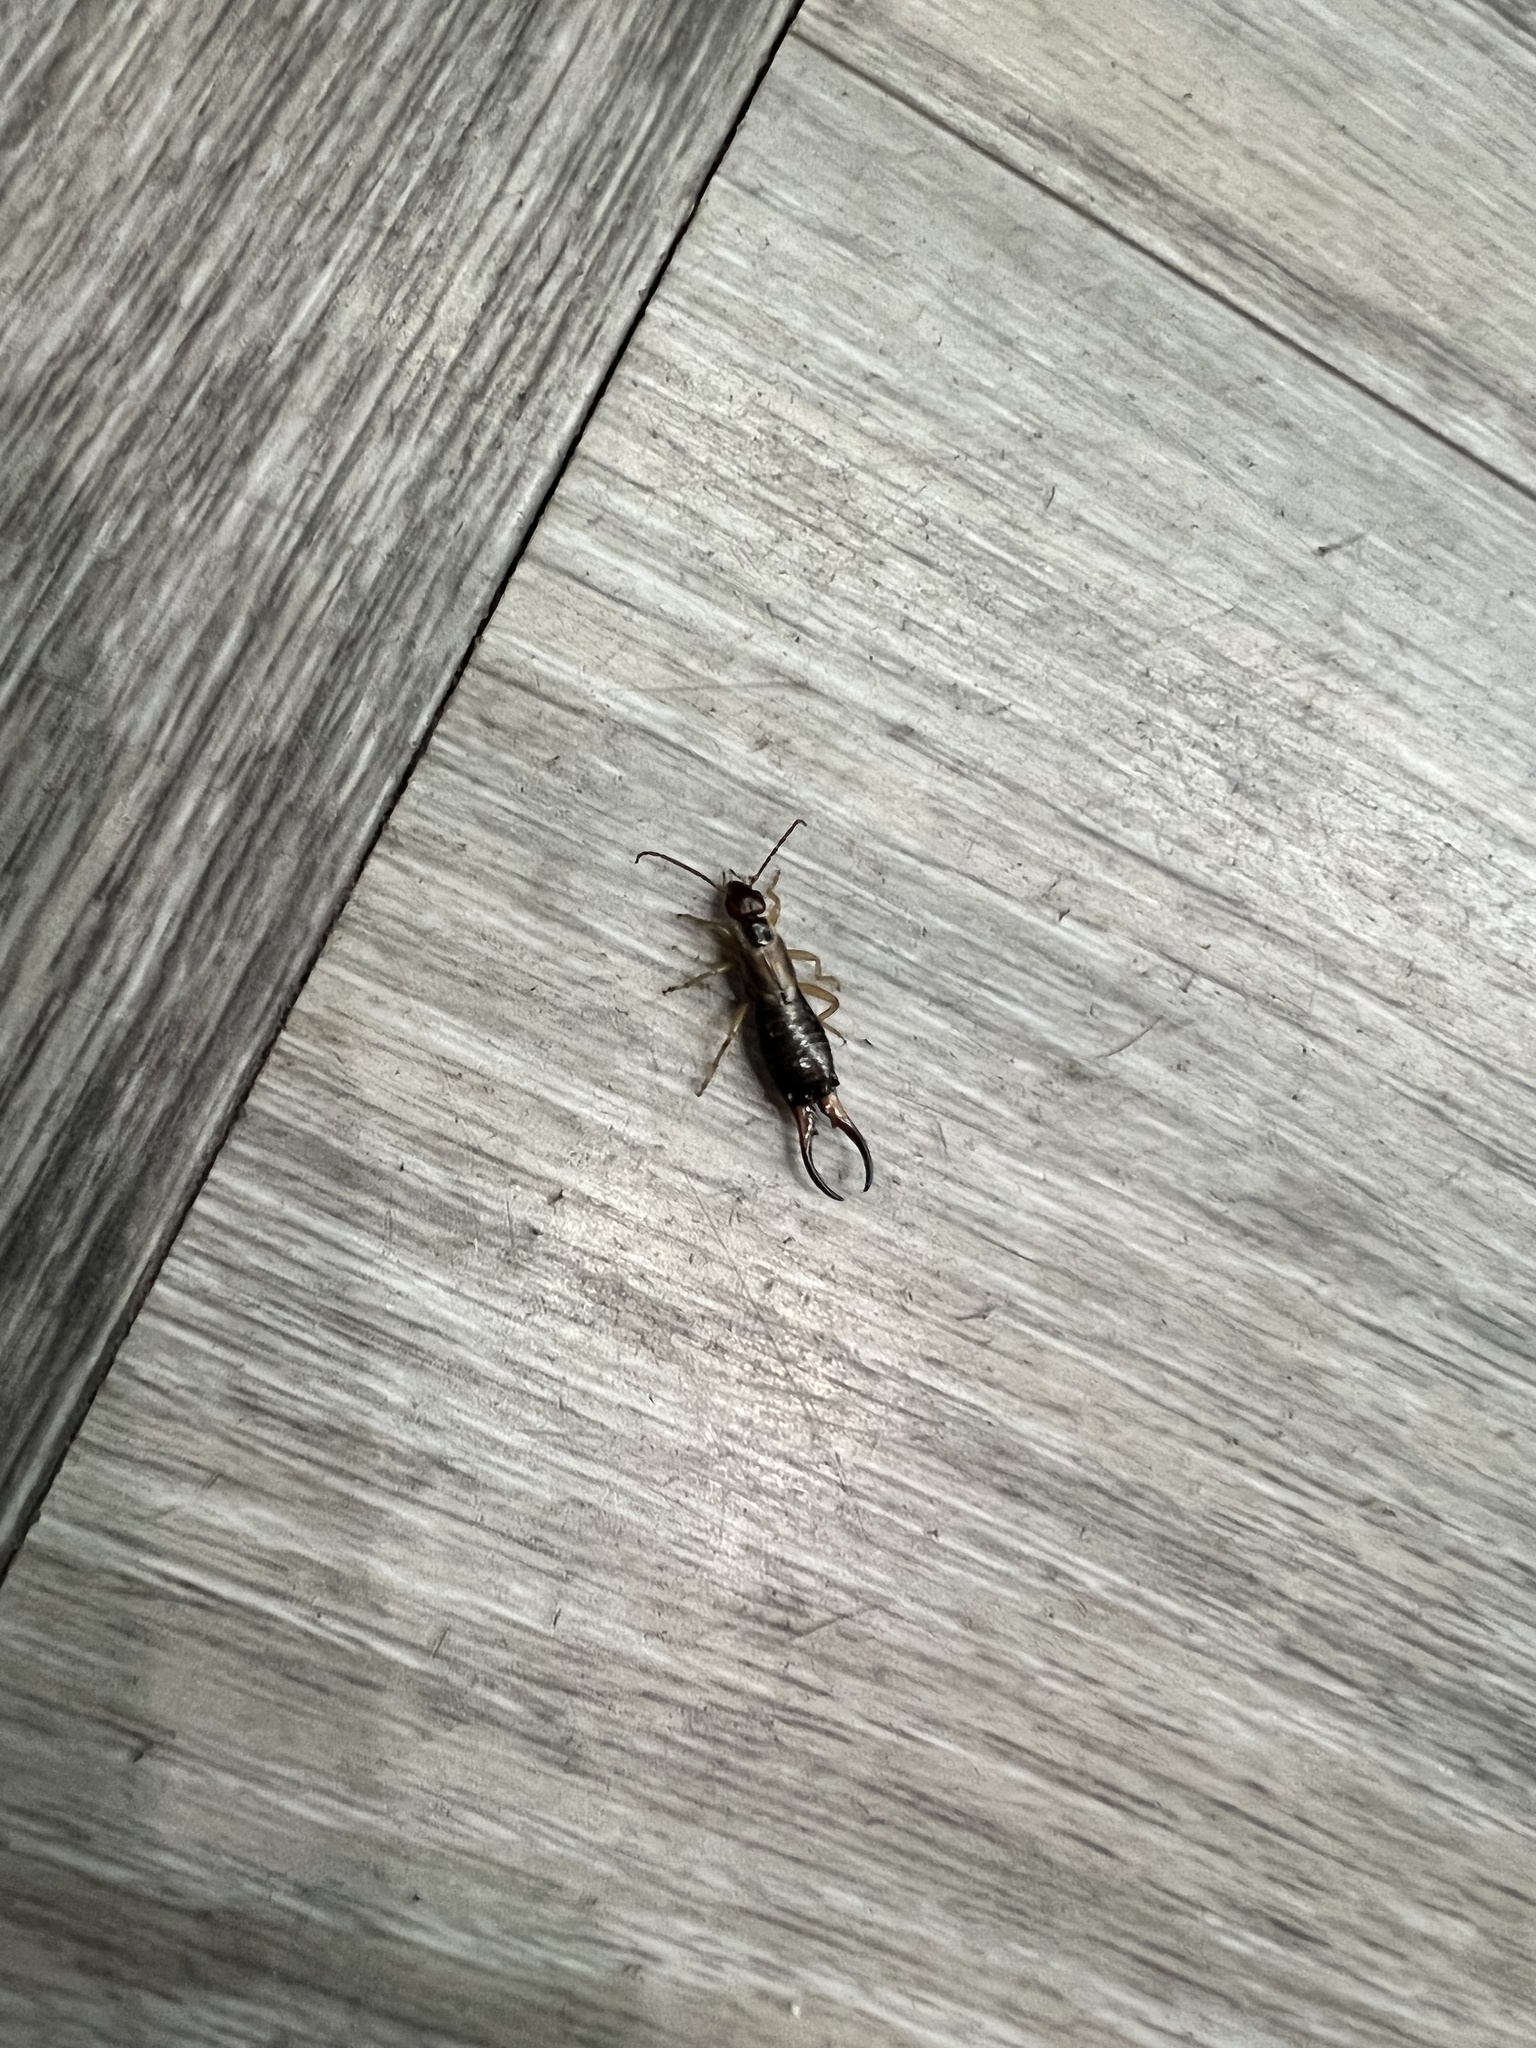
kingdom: Animalia
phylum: Arthropoda
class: Insecta
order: Dermaptera
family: Forficulidae
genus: Forficula
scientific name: Forficula
